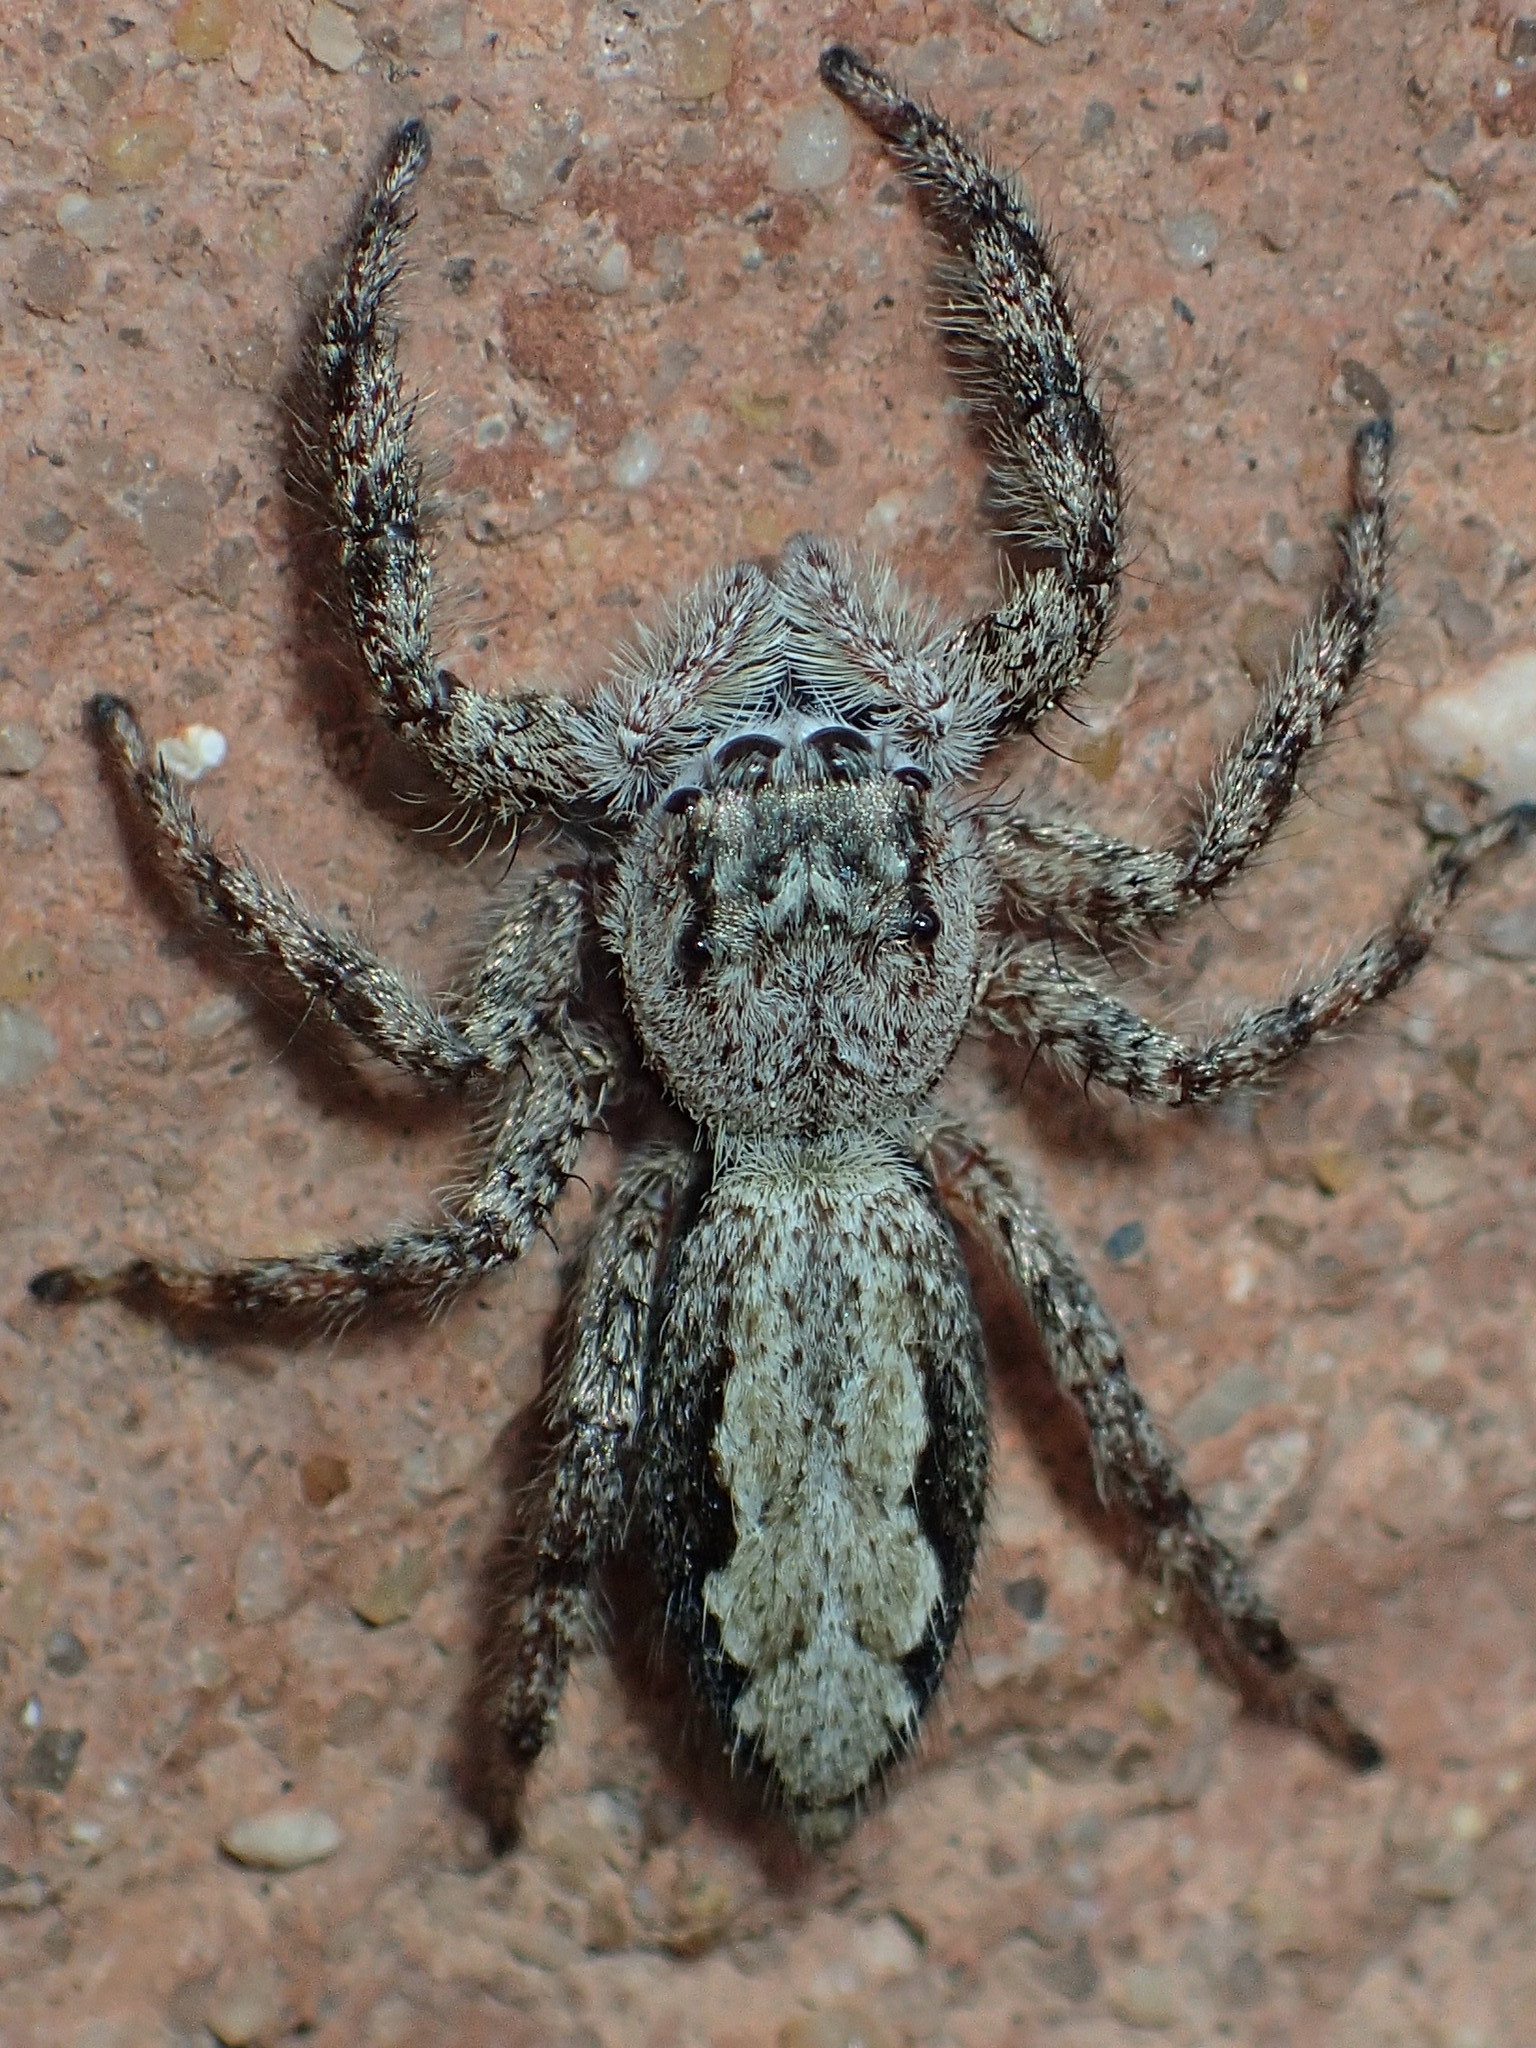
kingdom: Animalia
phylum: Arthropoda
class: Arachnida
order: Araneae
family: Salticidae
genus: Platycryptus
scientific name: Platycryptus undatus
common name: Tan jumping spider
